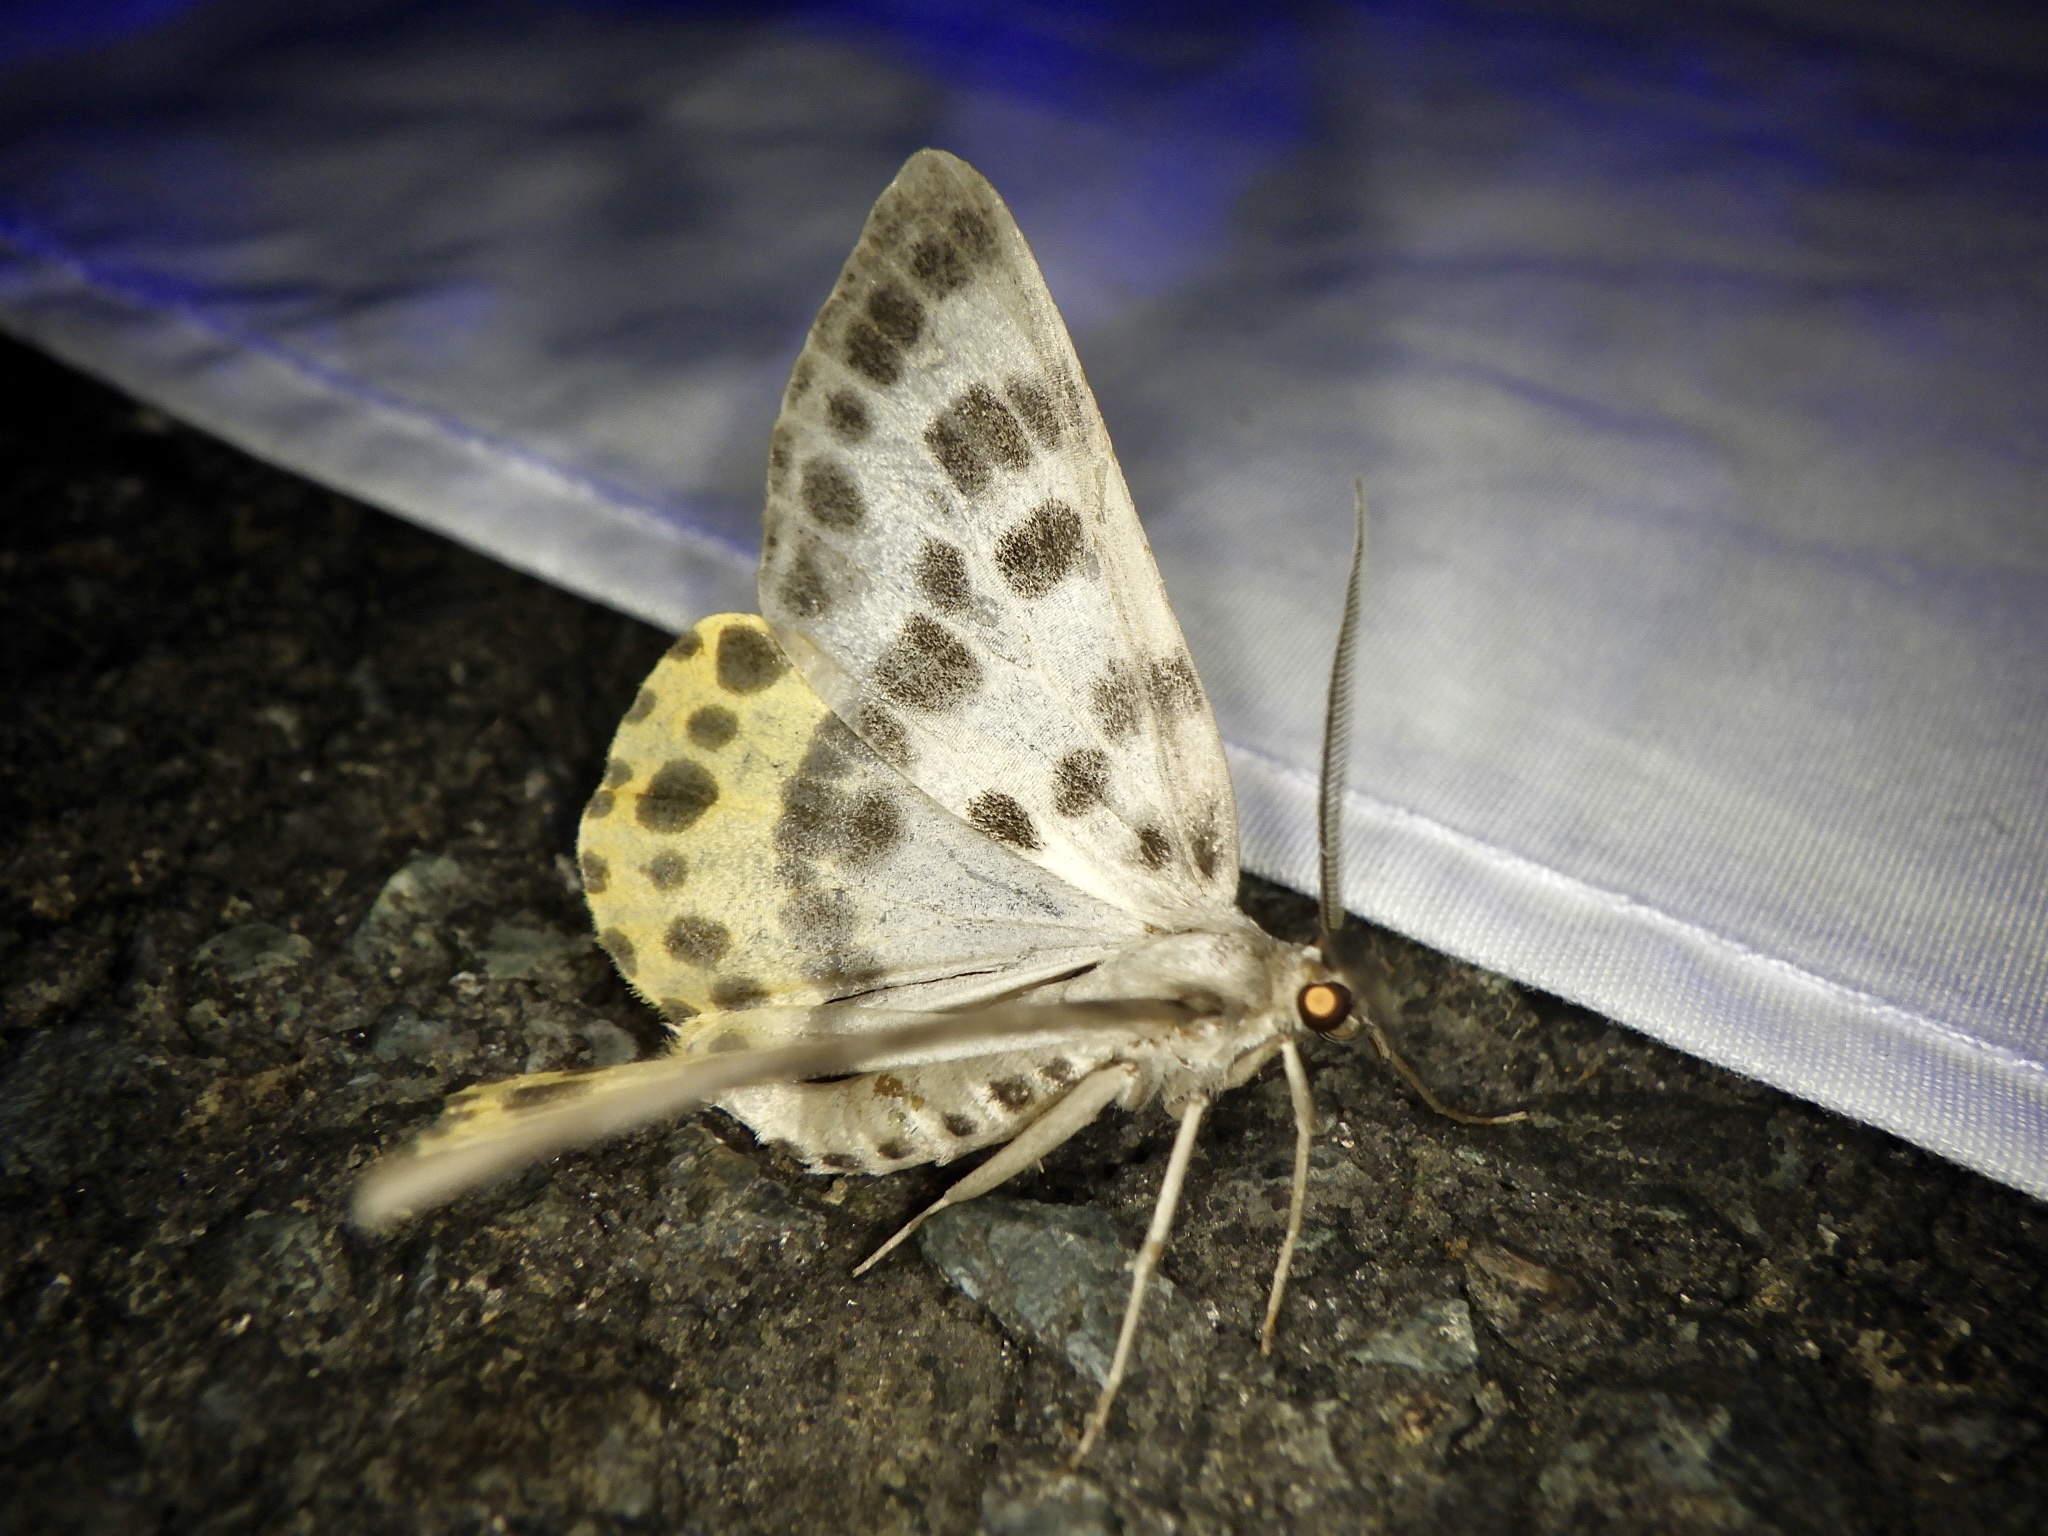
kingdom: Animalia
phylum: Arthropoda
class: Insecta
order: Lepidoptera
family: Geometridae
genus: Arichanna
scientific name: Arichanna
